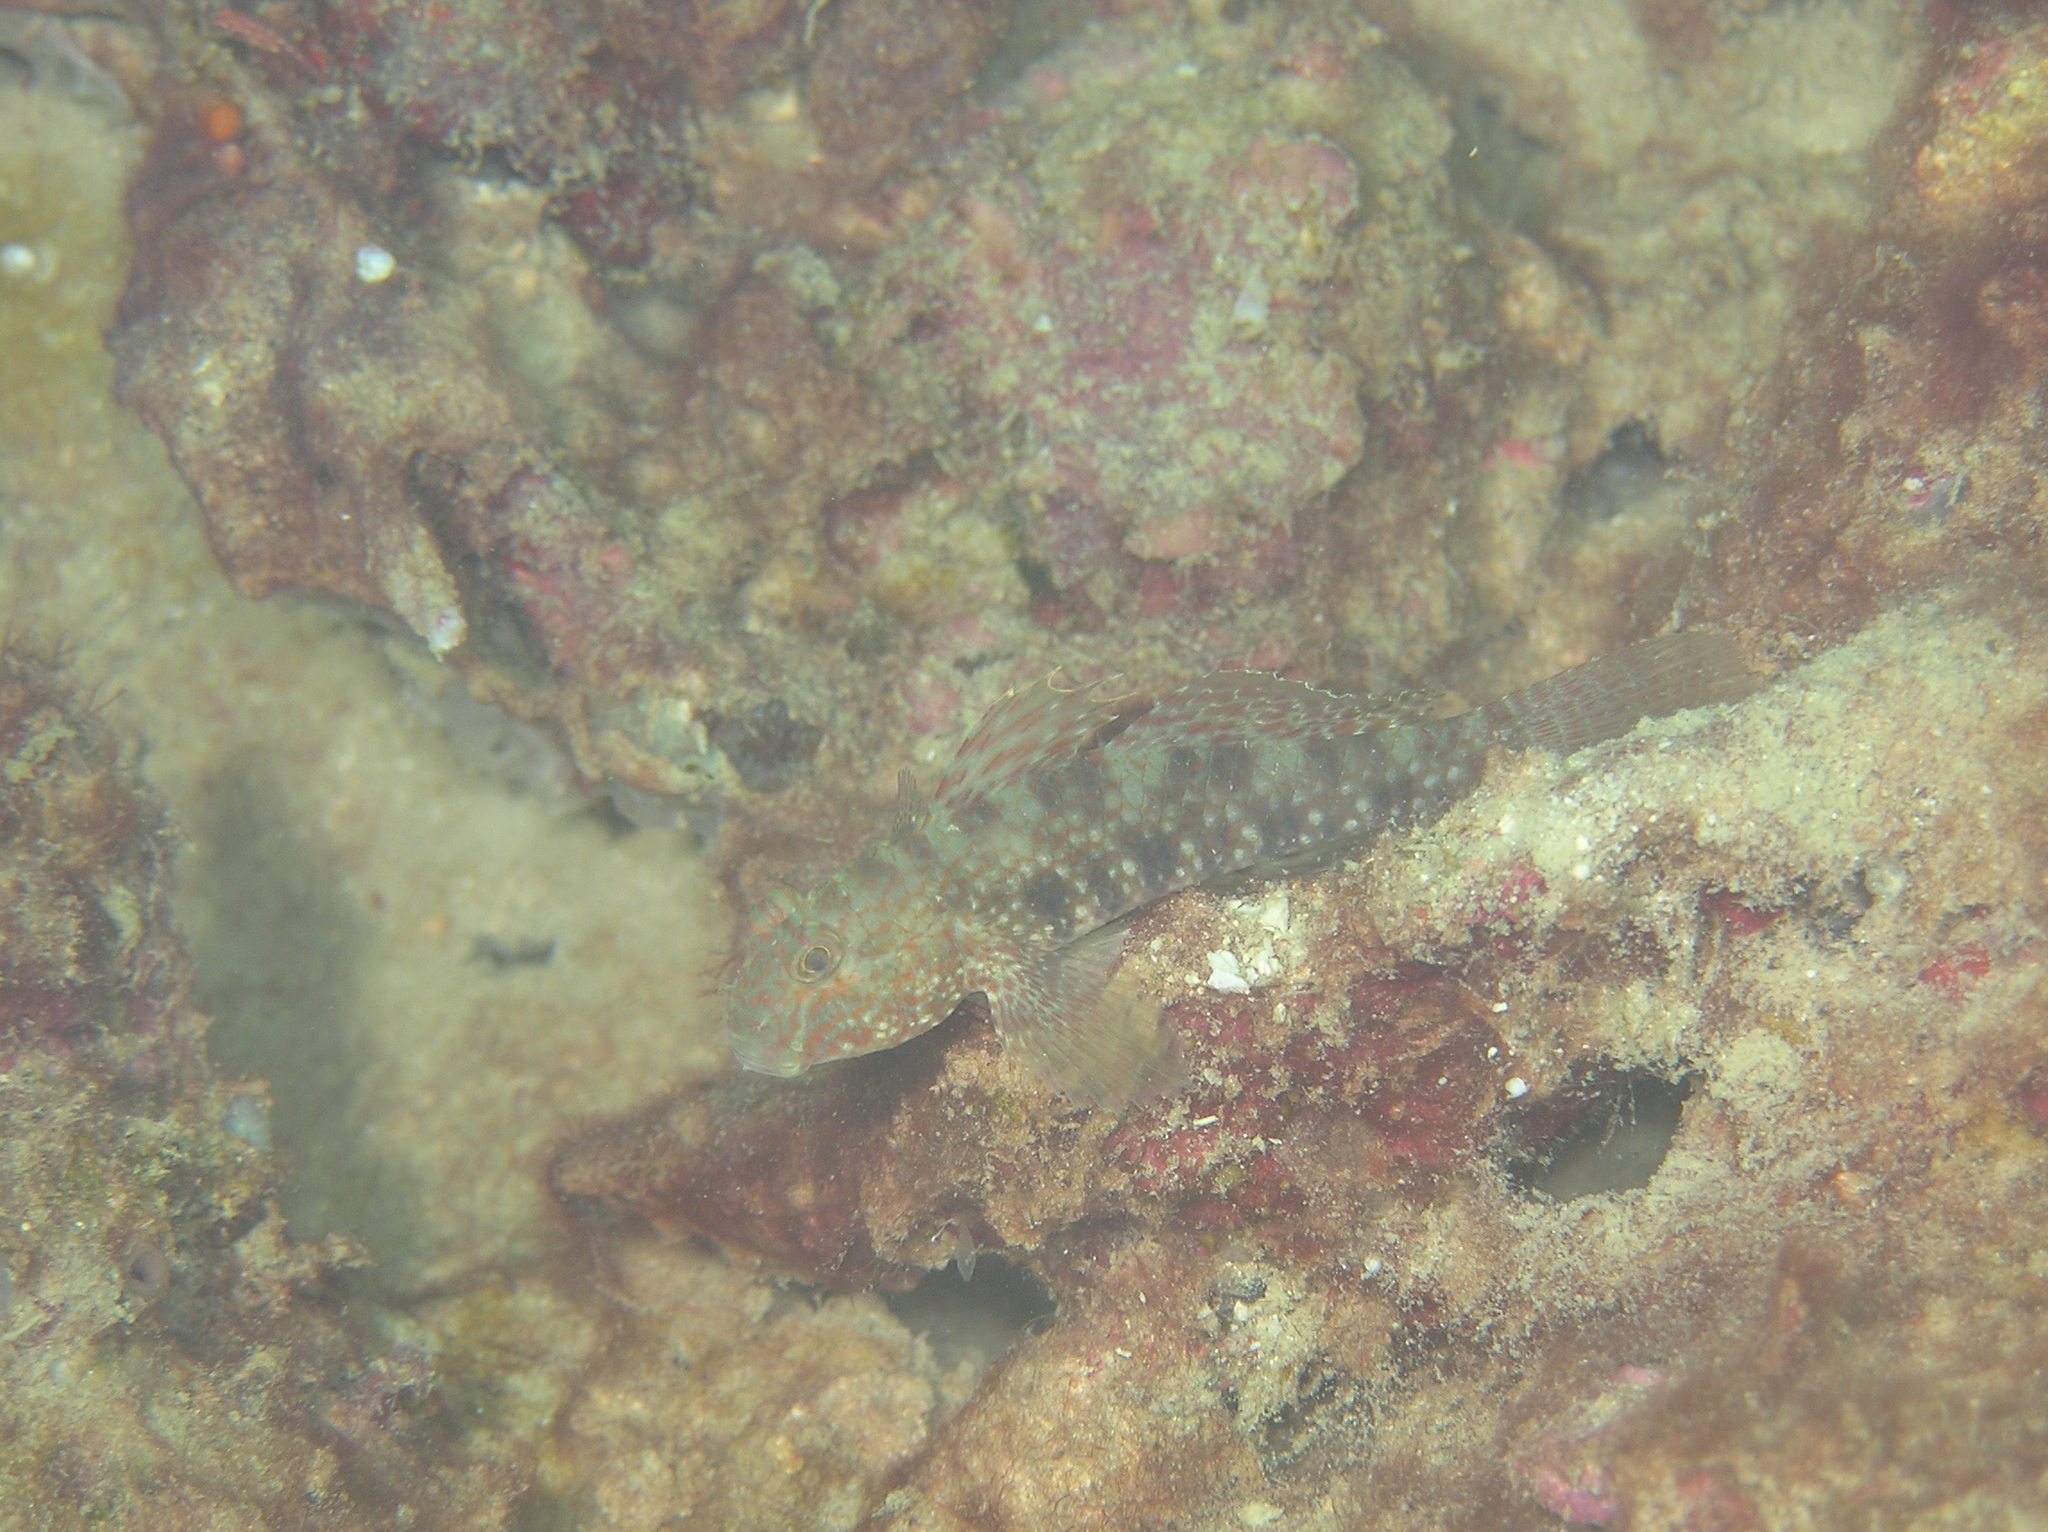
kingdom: Animalia
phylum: Chordata
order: Perciformes
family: Gobiidae
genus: Exyrias
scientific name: Exyrias belissimus
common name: Mud reef-goby
